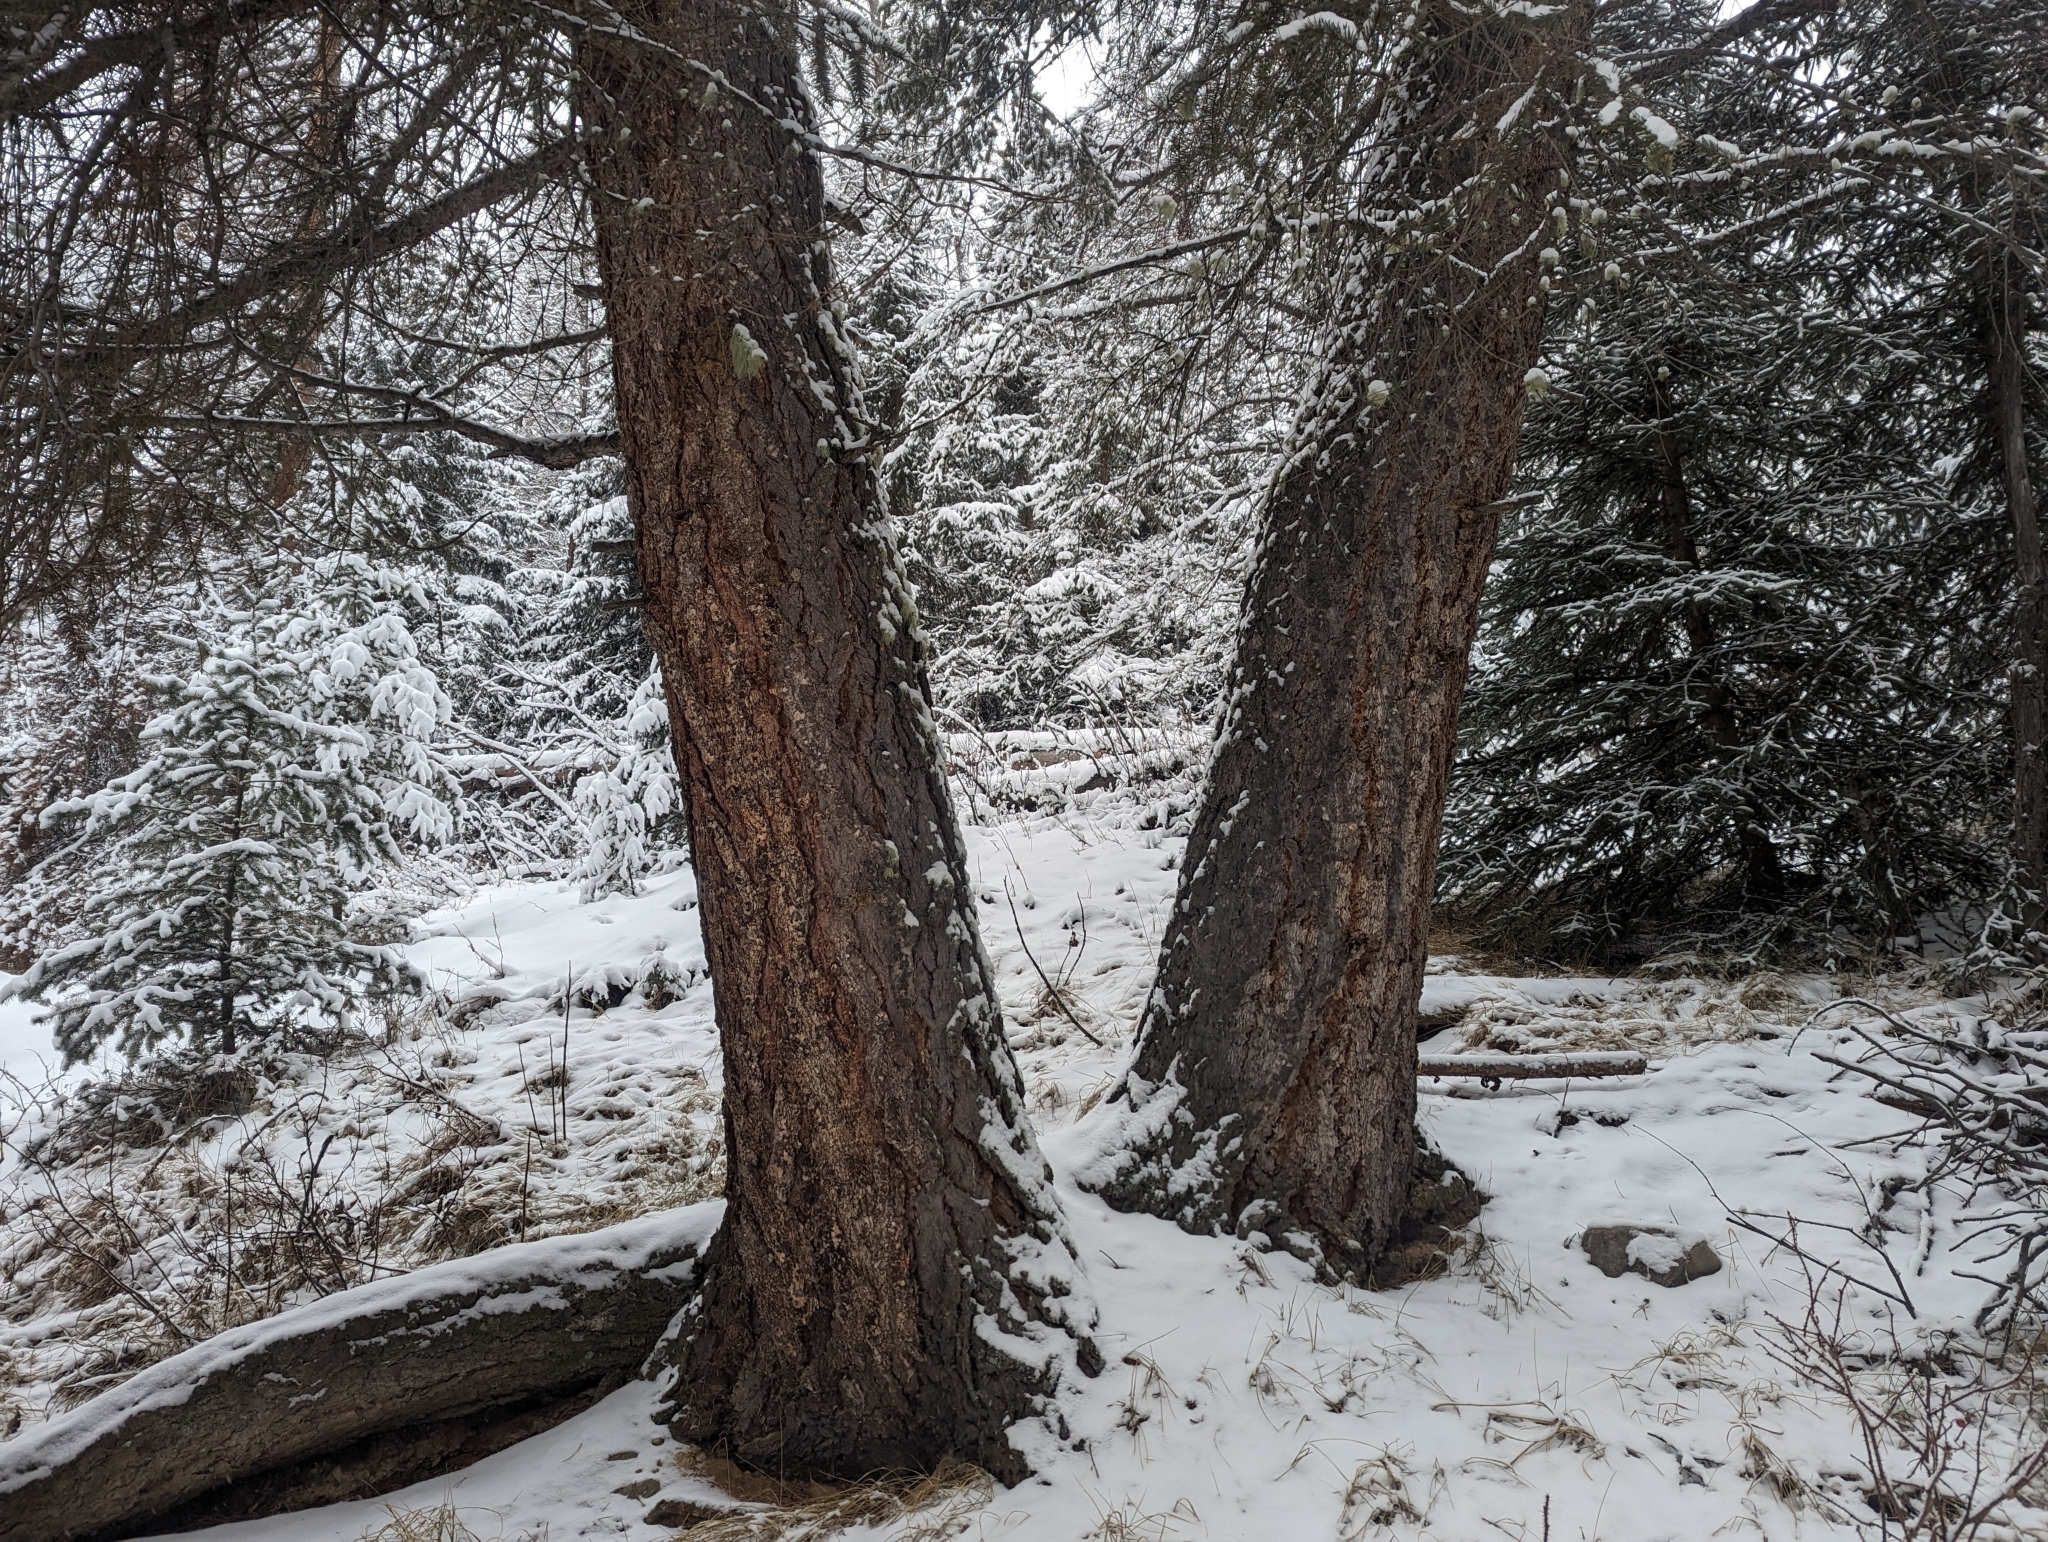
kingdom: Plantae
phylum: Tracheophyta
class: Pinopsida
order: Pinales
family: Pinaceae
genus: Pseudotsuga
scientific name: Pseudotsuga menziesii
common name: Douglas fir
